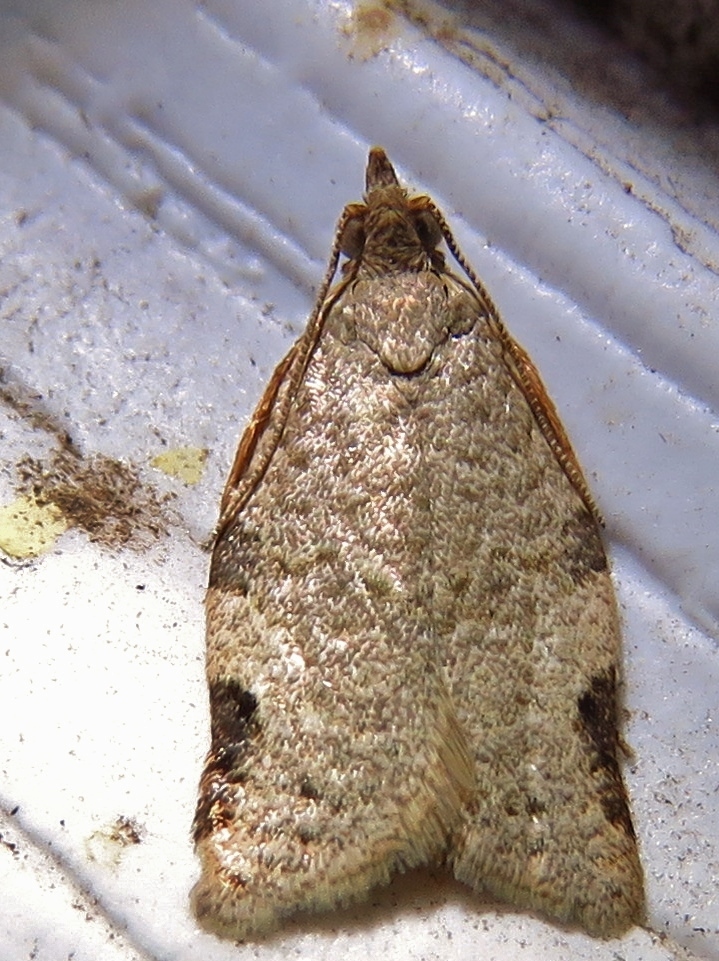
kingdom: Animalia
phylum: Arthropoda
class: Insecta
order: Lepidoptera
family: Tortricidae
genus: Clepsis
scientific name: Clepsis virescana
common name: Greenish apple moth
